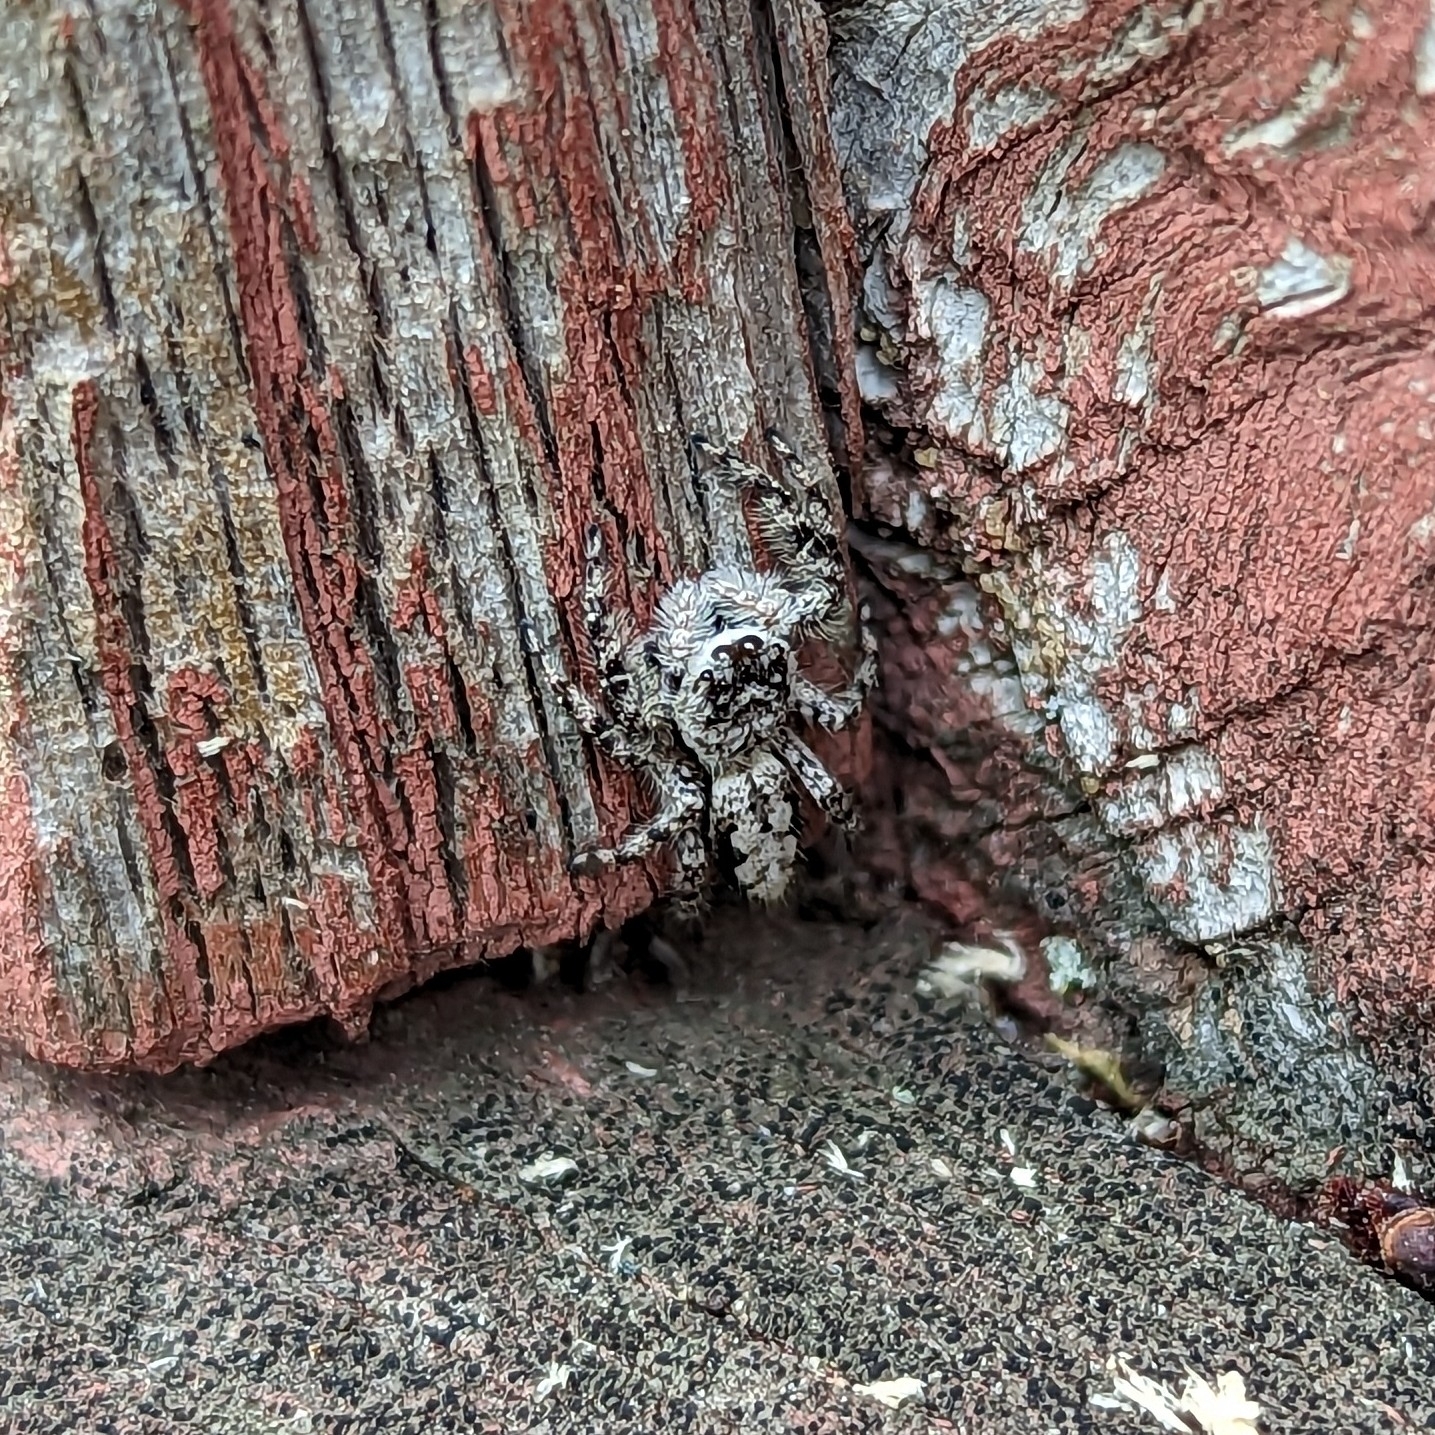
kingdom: Animalia
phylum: Arthropoda
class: Arachnida
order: Araneae
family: Salticidae
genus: Platycryptus
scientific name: Platycryptus undatus
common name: Tan jumping spider
